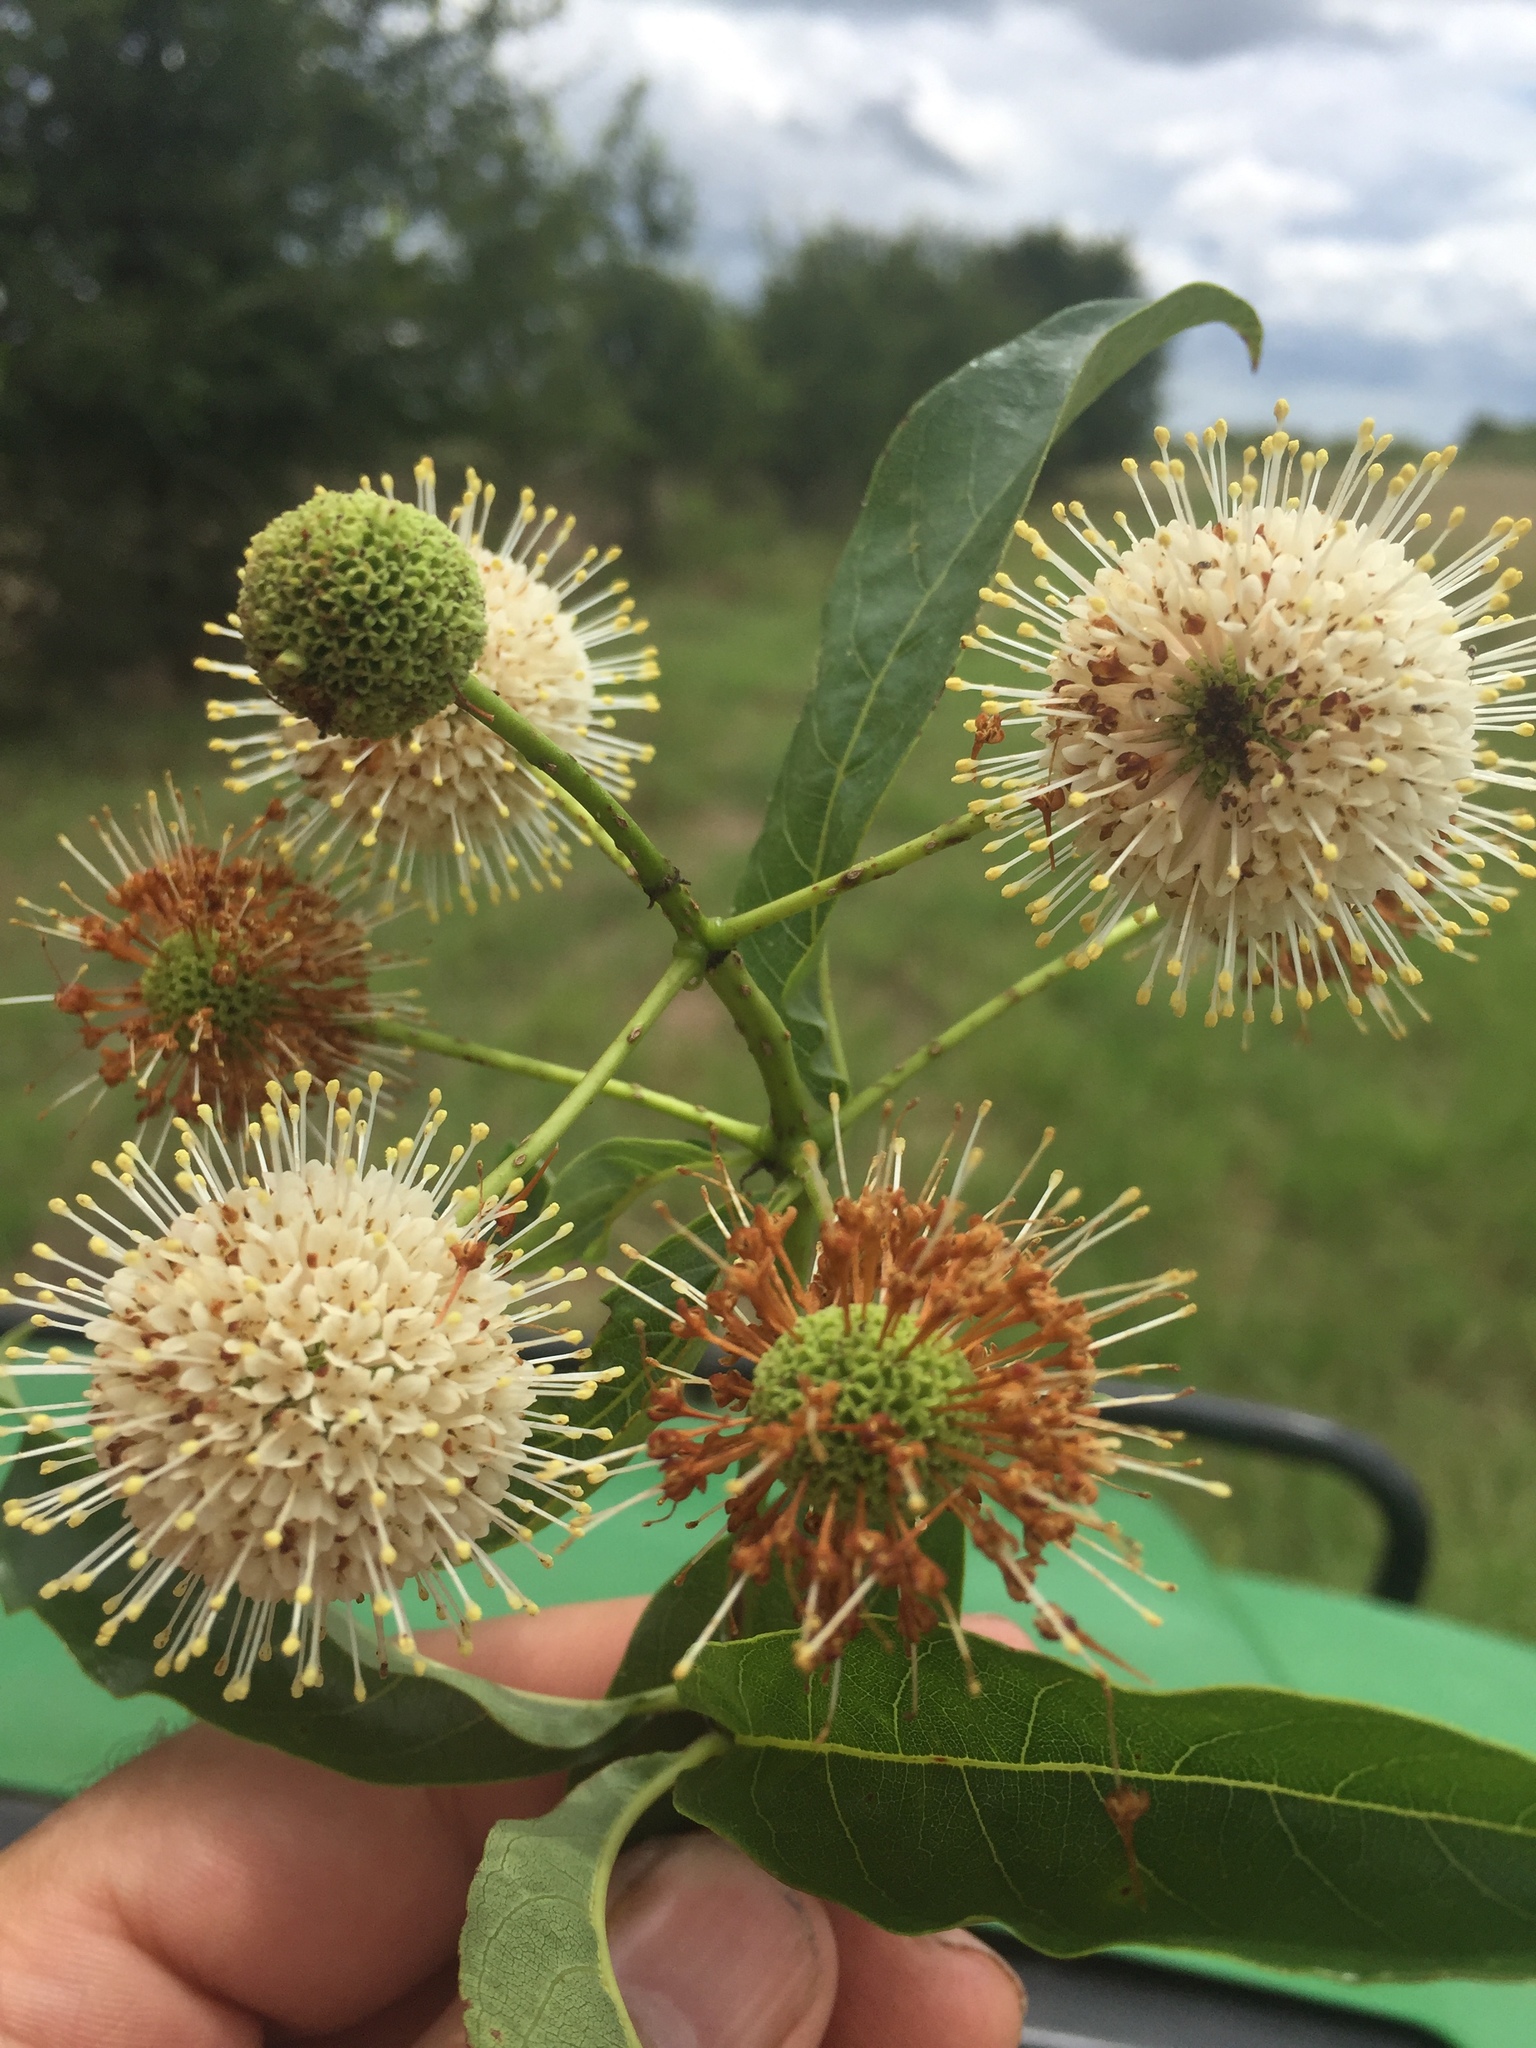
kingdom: Plantae
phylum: Tracheophyta
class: Magnoliopsida
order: Gentianales
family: Rubiaceae
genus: Cephalanthus
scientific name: Cephalanthus occidentalis
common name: Button-willow
